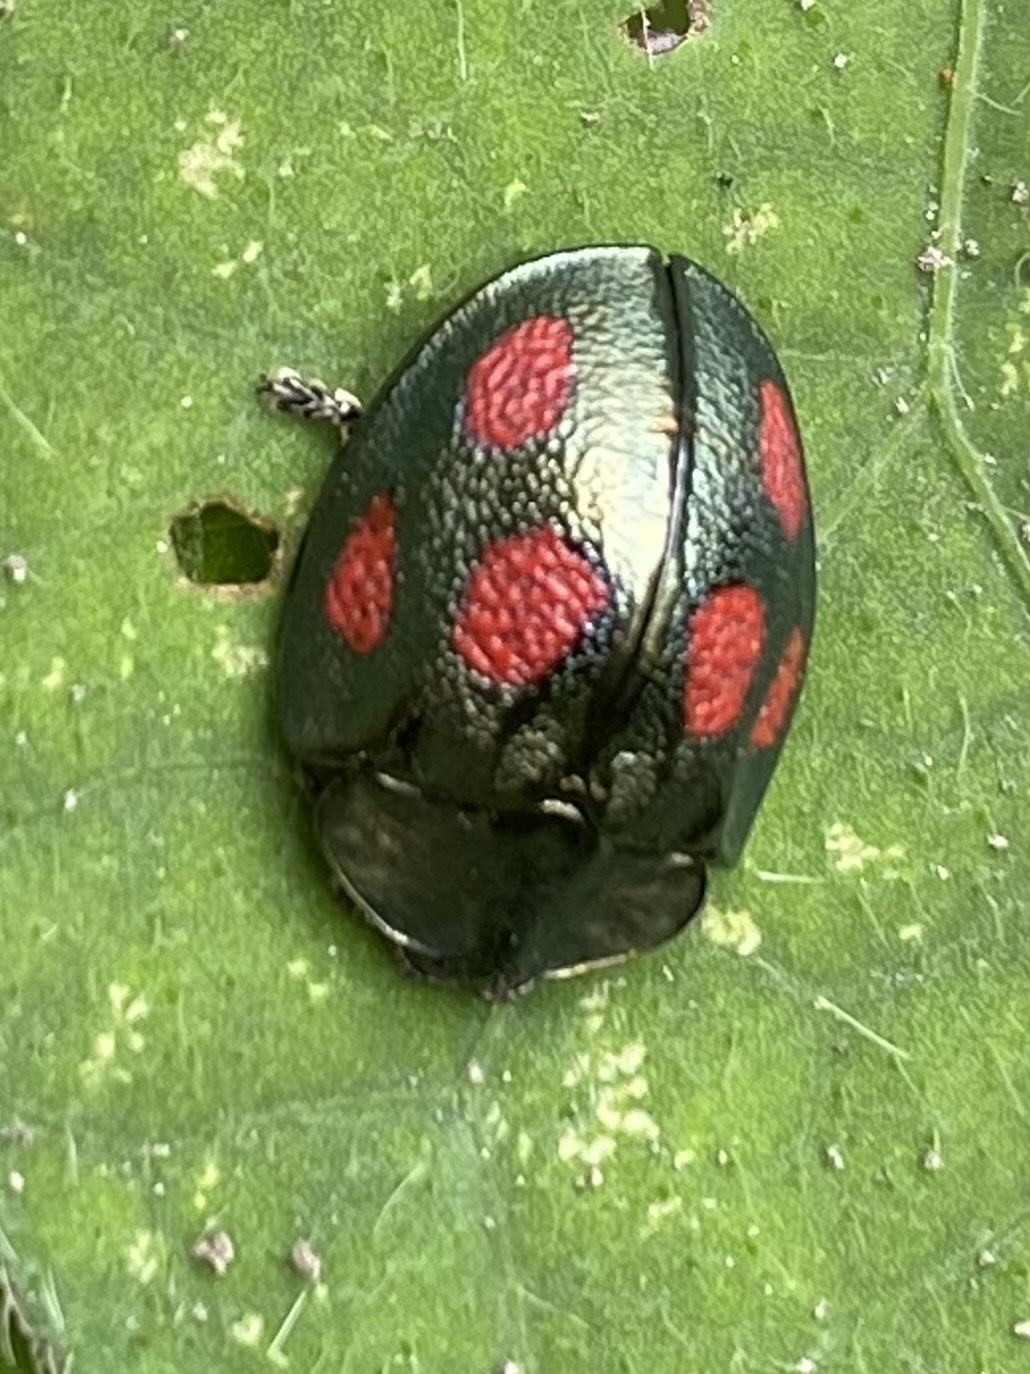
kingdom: Animalia
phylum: Arthropoda
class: Insecta
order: Coleoptera
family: Chrysomelidae
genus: Cyrtonota
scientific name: Cyrtonota tristigma
